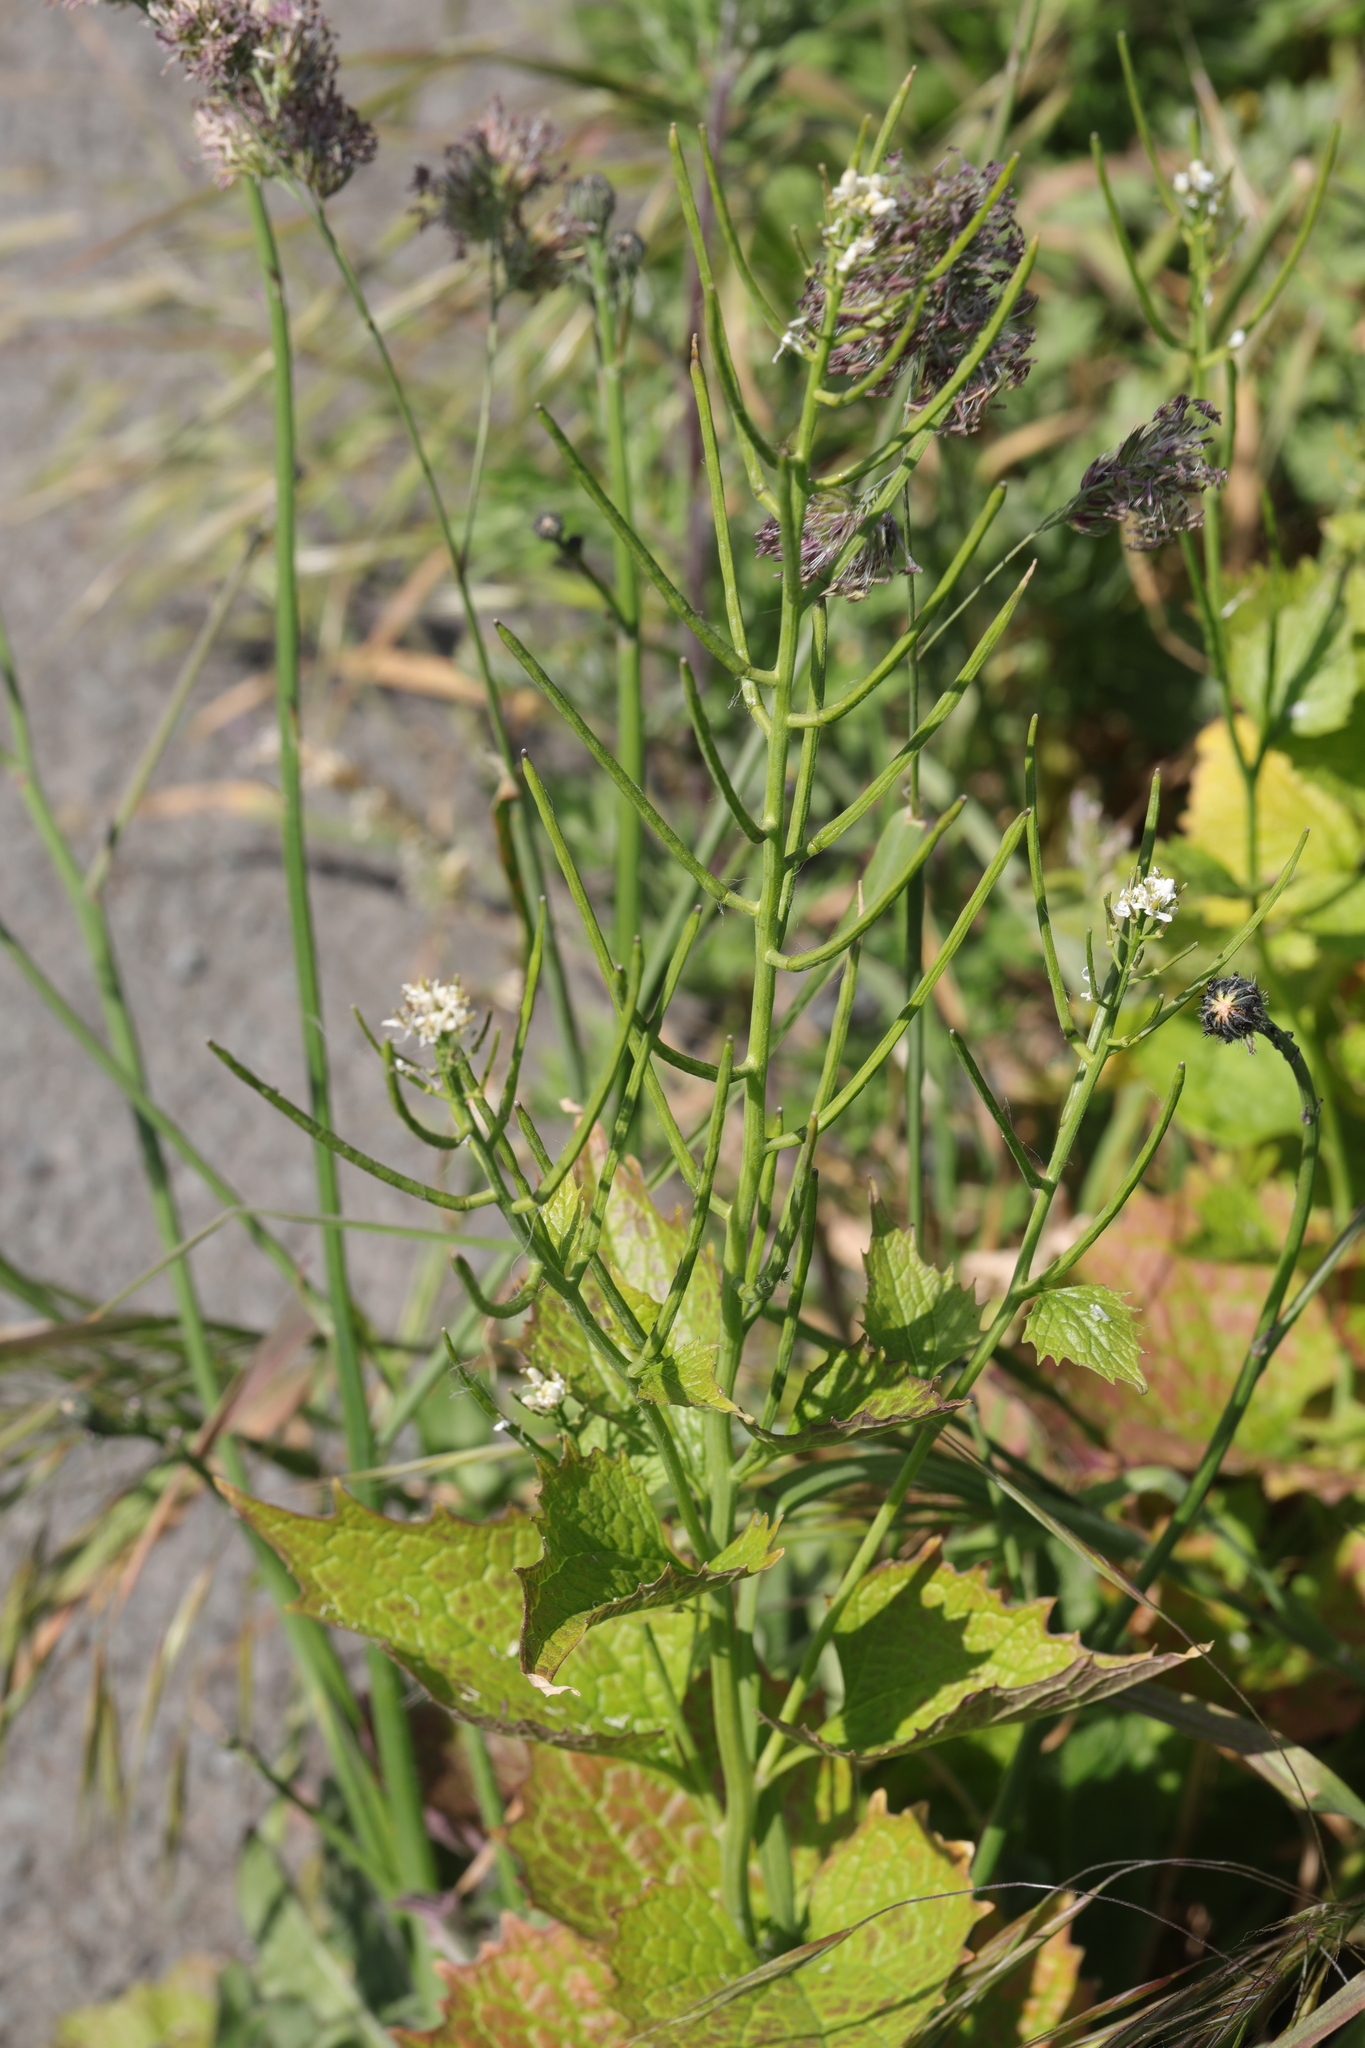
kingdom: Plantae
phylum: Tracheophyta
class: Magnoliopsida
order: Brassicales
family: Brassicaceae
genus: Alliaria
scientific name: Alliaria petiolata
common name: Garlic mustard
